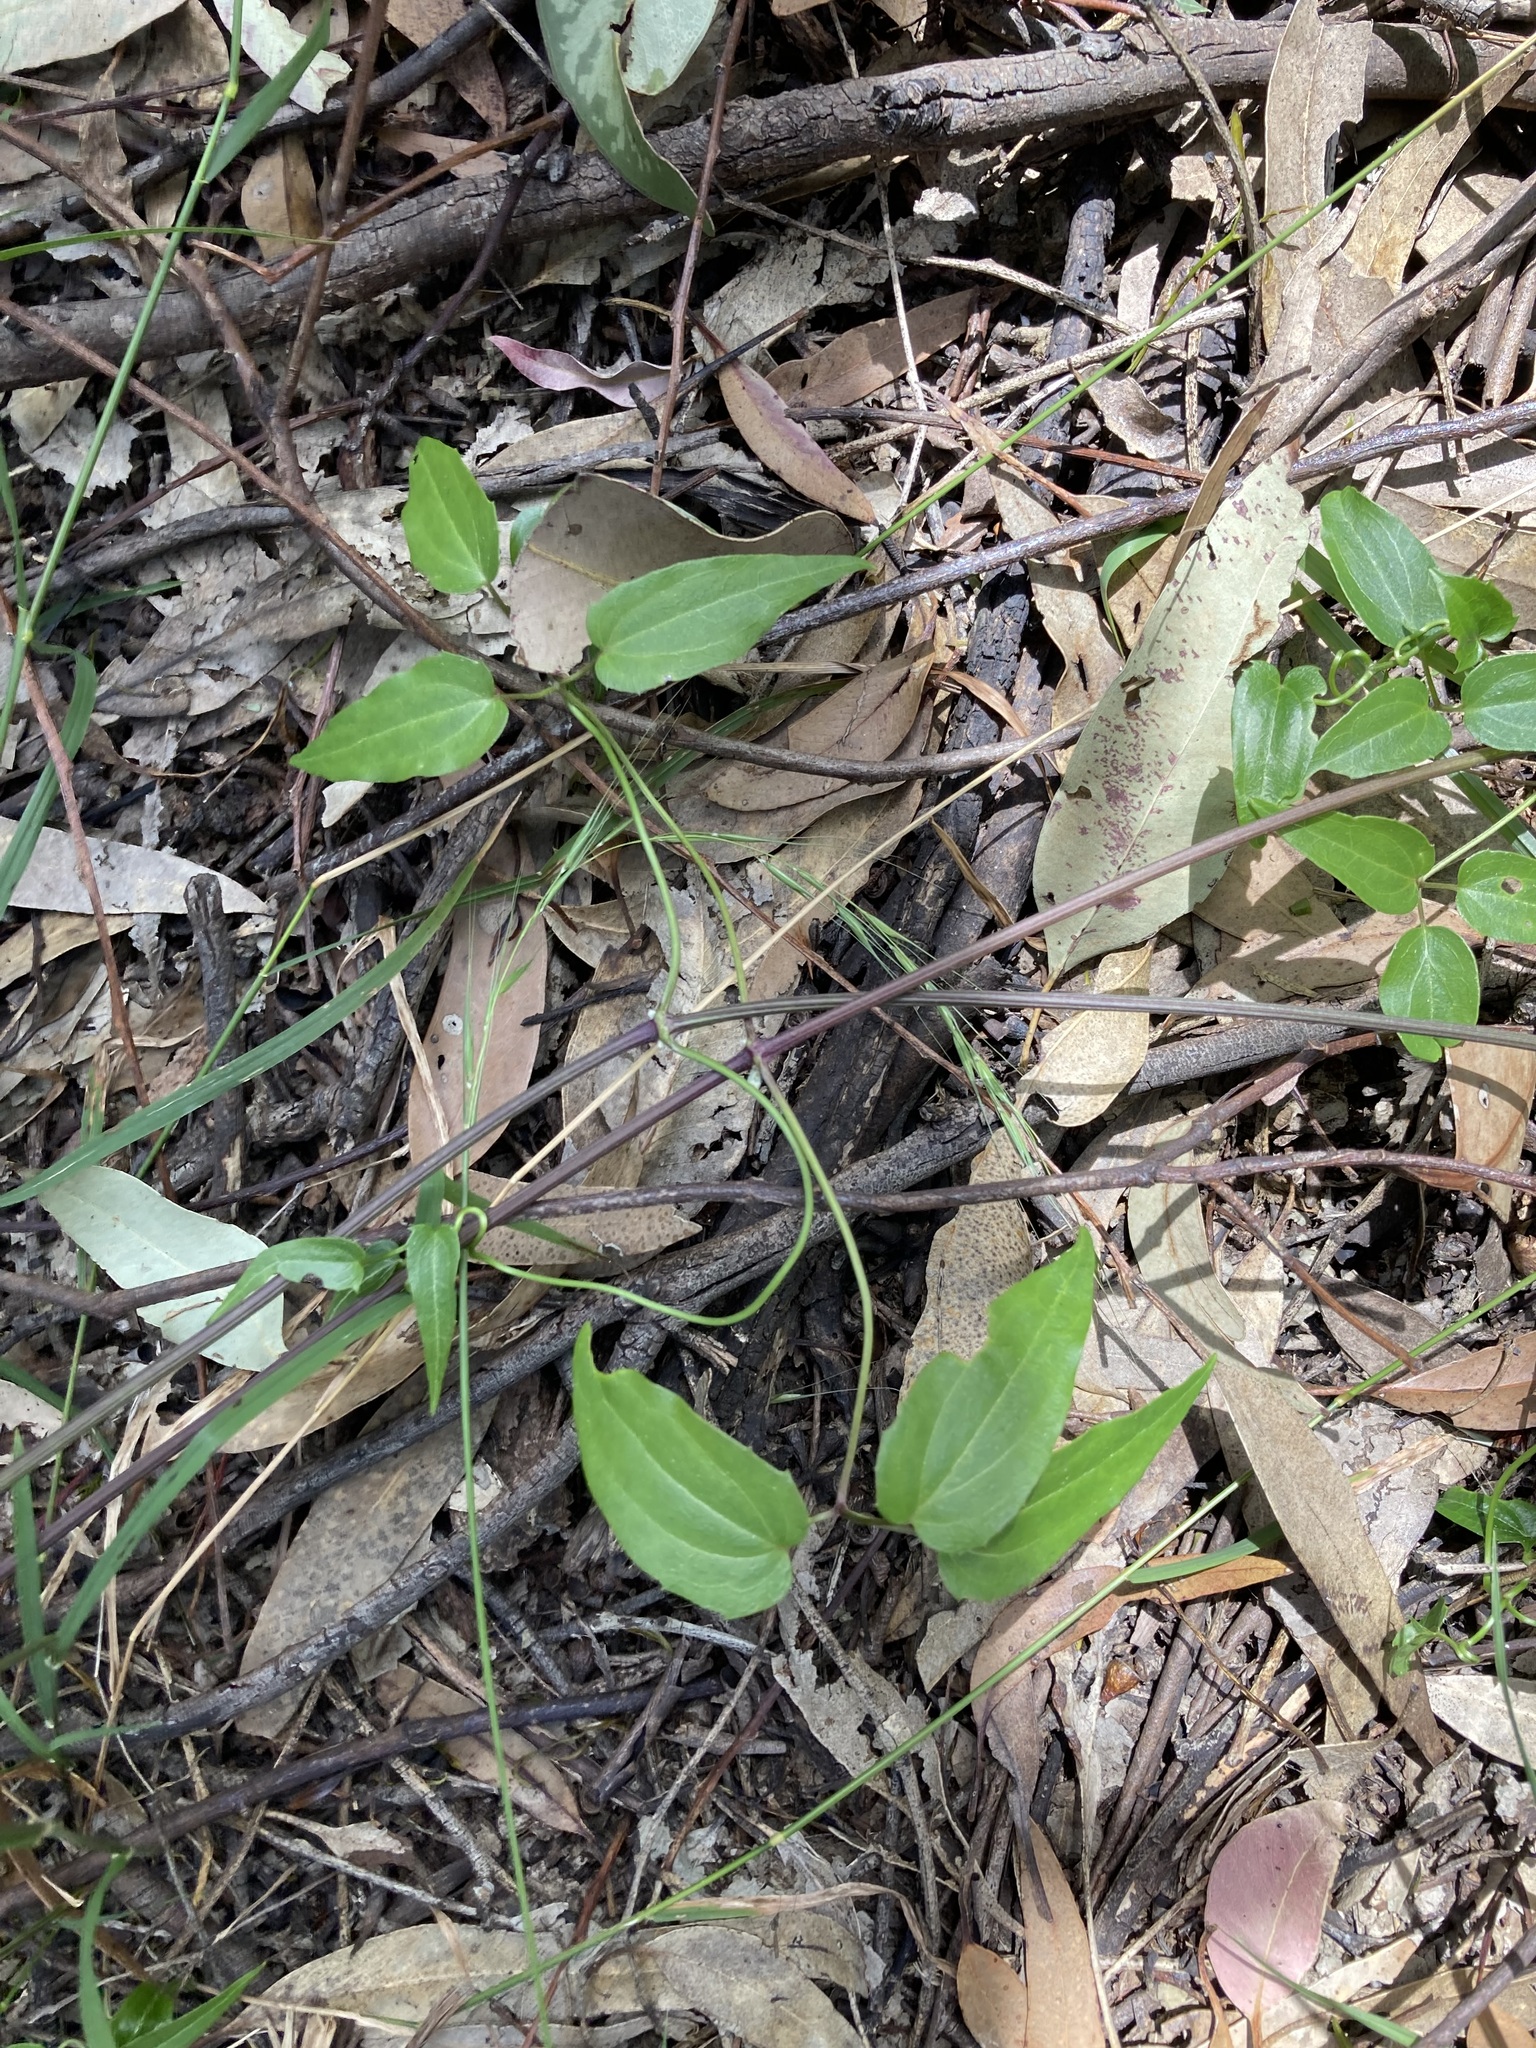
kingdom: Plantae
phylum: Tracheophyta
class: Magnoliopsida
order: Ranunculales
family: Ranunculaceae
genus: Clematis
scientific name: Clematis glycinoides
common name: Forest clematis
